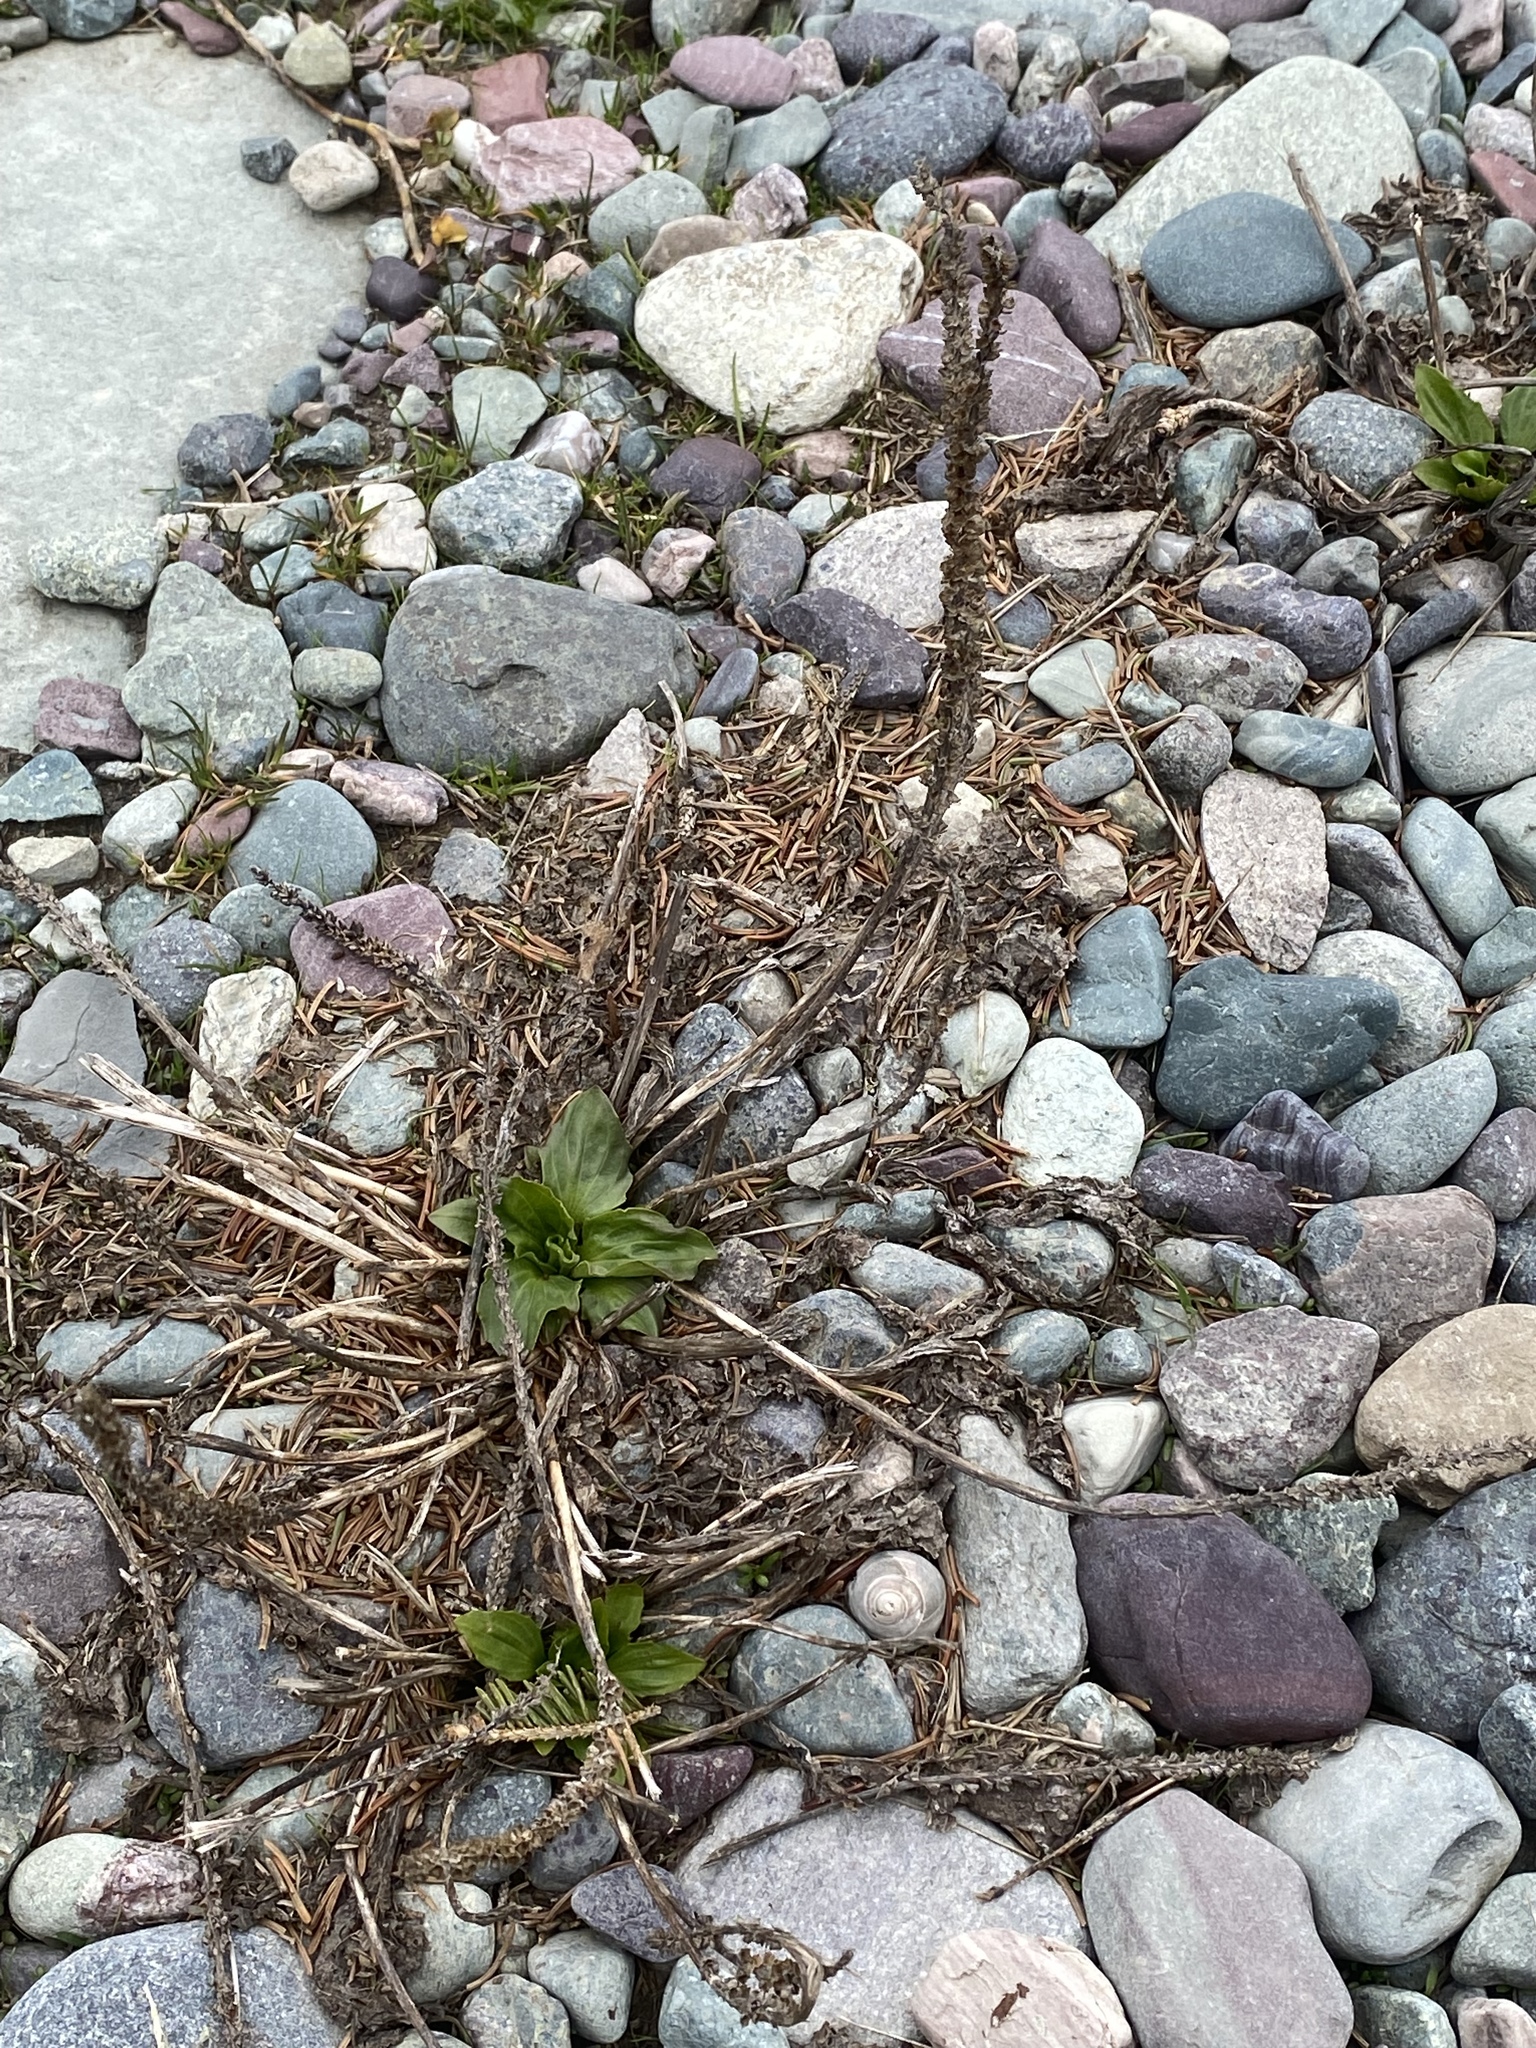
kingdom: Plantae
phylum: Tracheophyta
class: Magnoliopsida
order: Lamiales
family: Plantaginaceae
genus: Plantago
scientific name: Plantago major
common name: Common plantain
